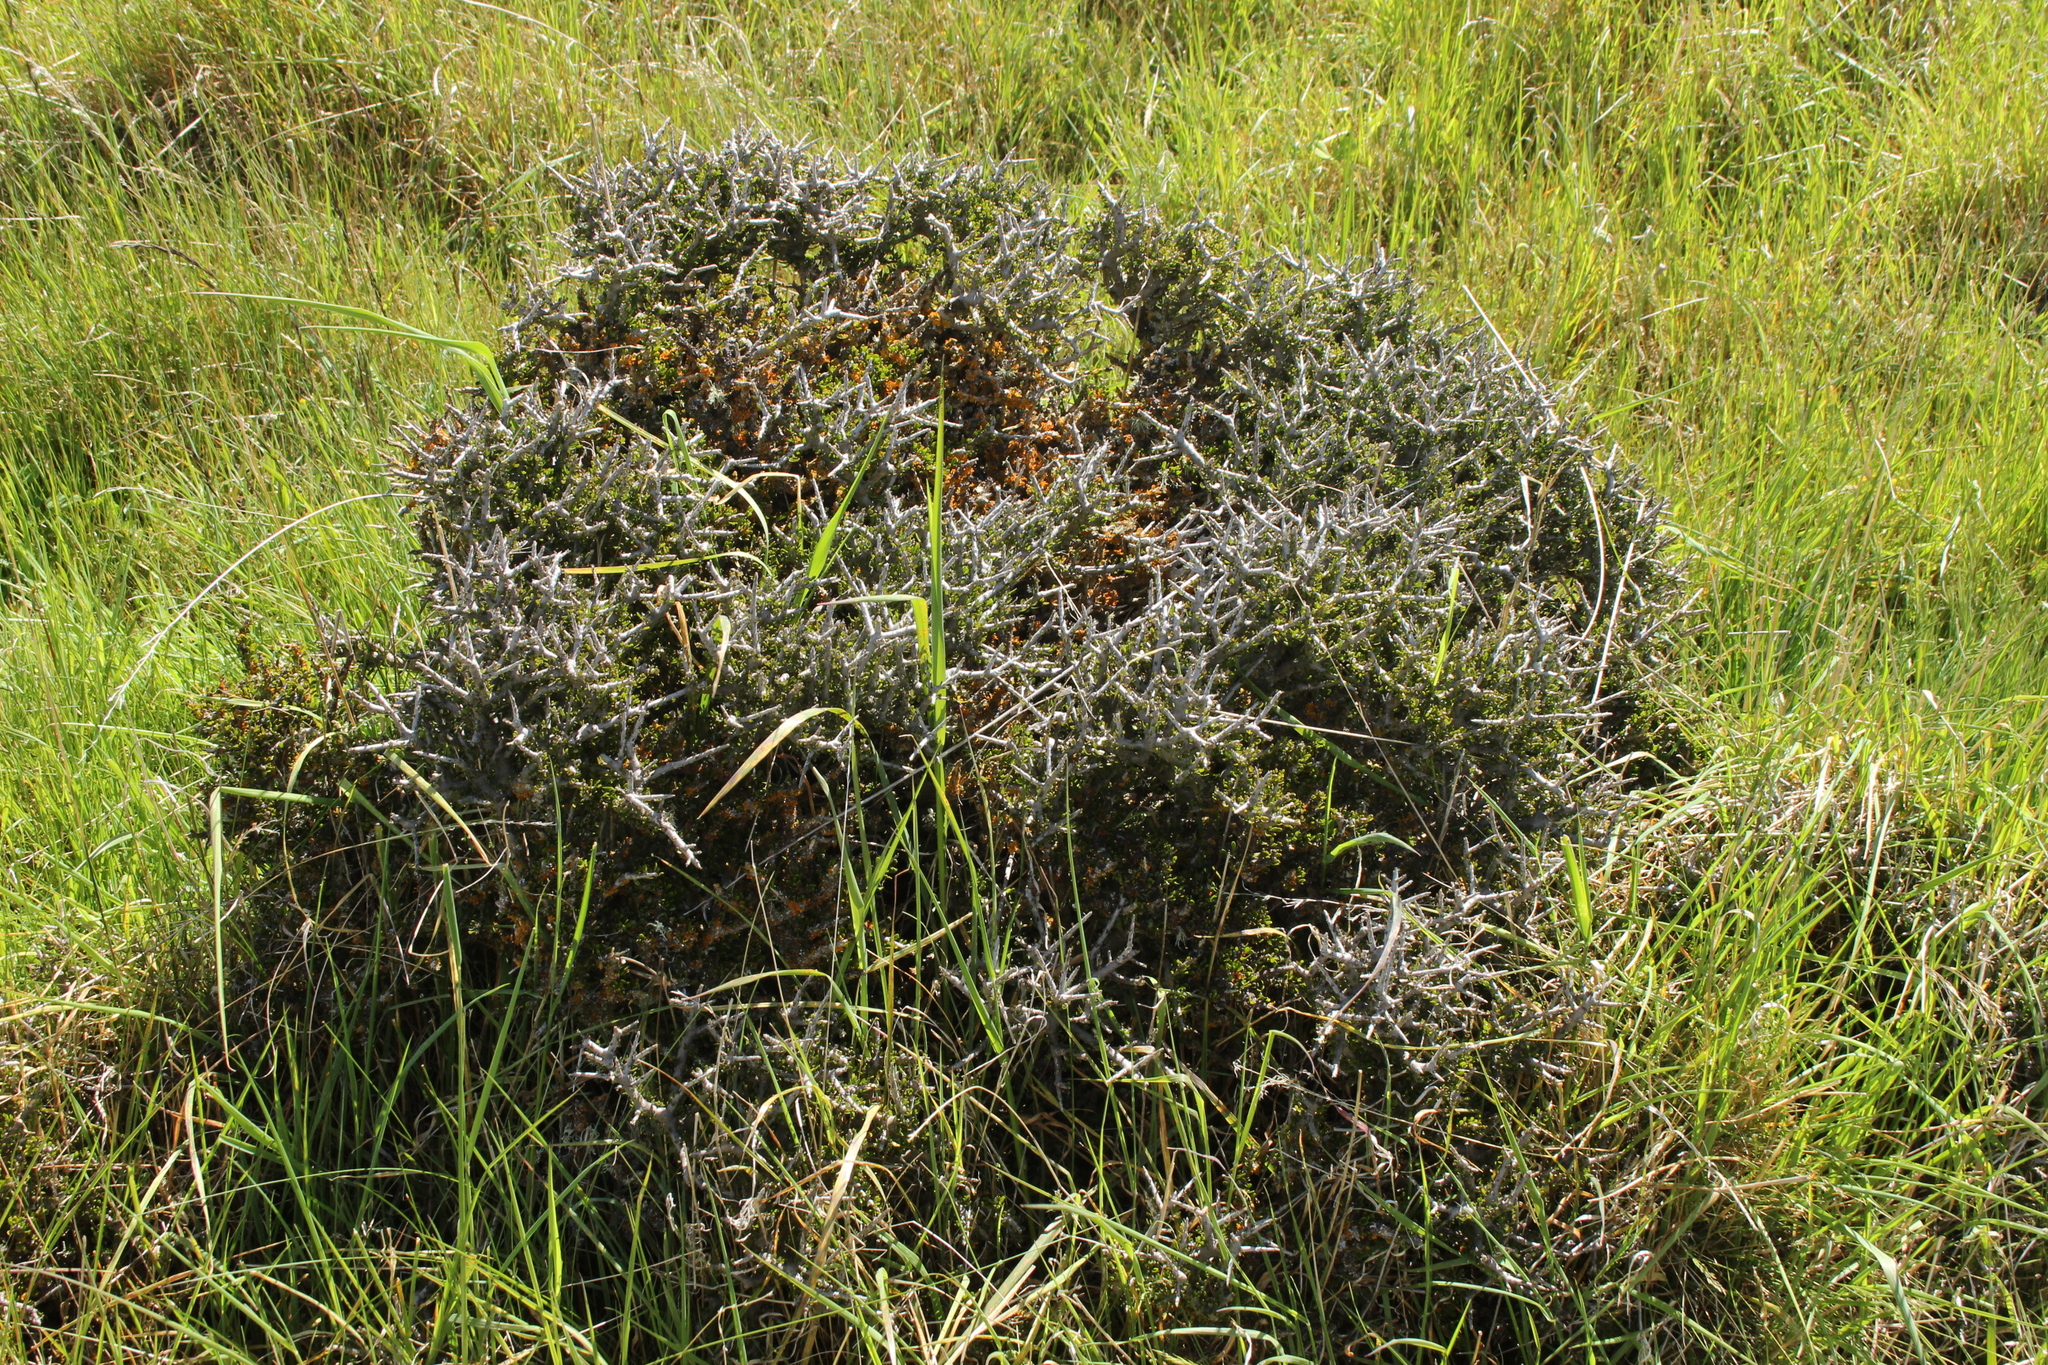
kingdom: Plantae
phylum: Tracheophyta
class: Magnoliopsida
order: Malpighiales
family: Violaceae
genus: Melicytus
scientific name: Melicytus alpinus
